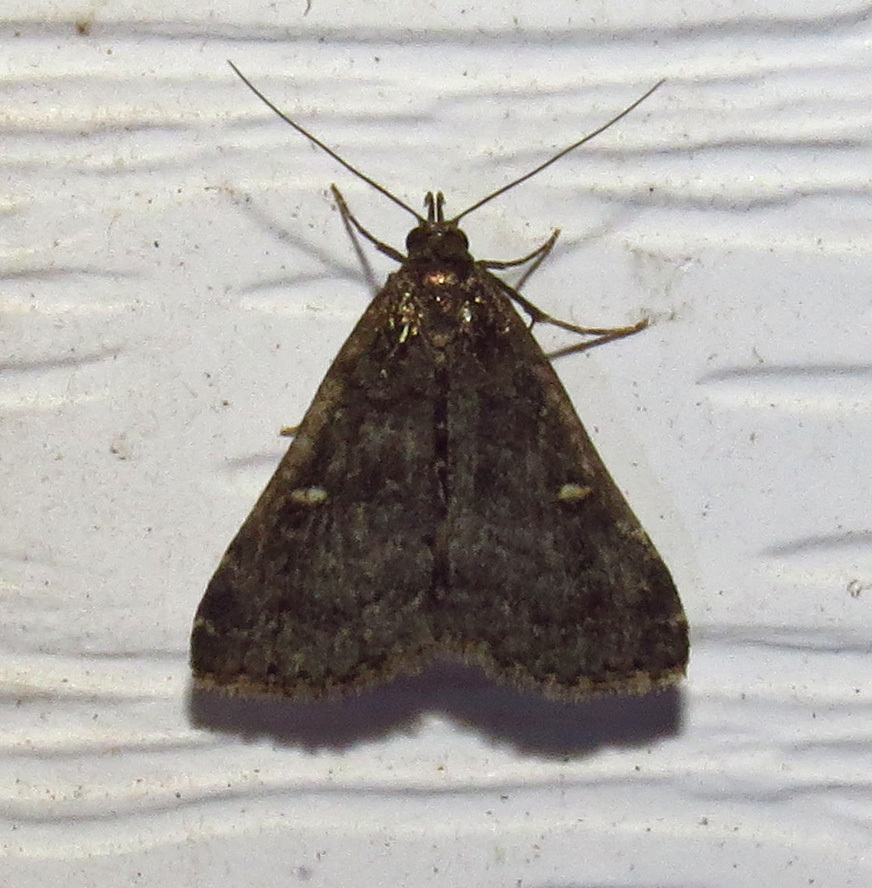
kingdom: Animalia
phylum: Arthropoda
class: Insecta
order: Lepidoptera
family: Erebidae
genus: Tetanolita
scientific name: Tetanolita mynesalis
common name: Smoky tetanolita moth
